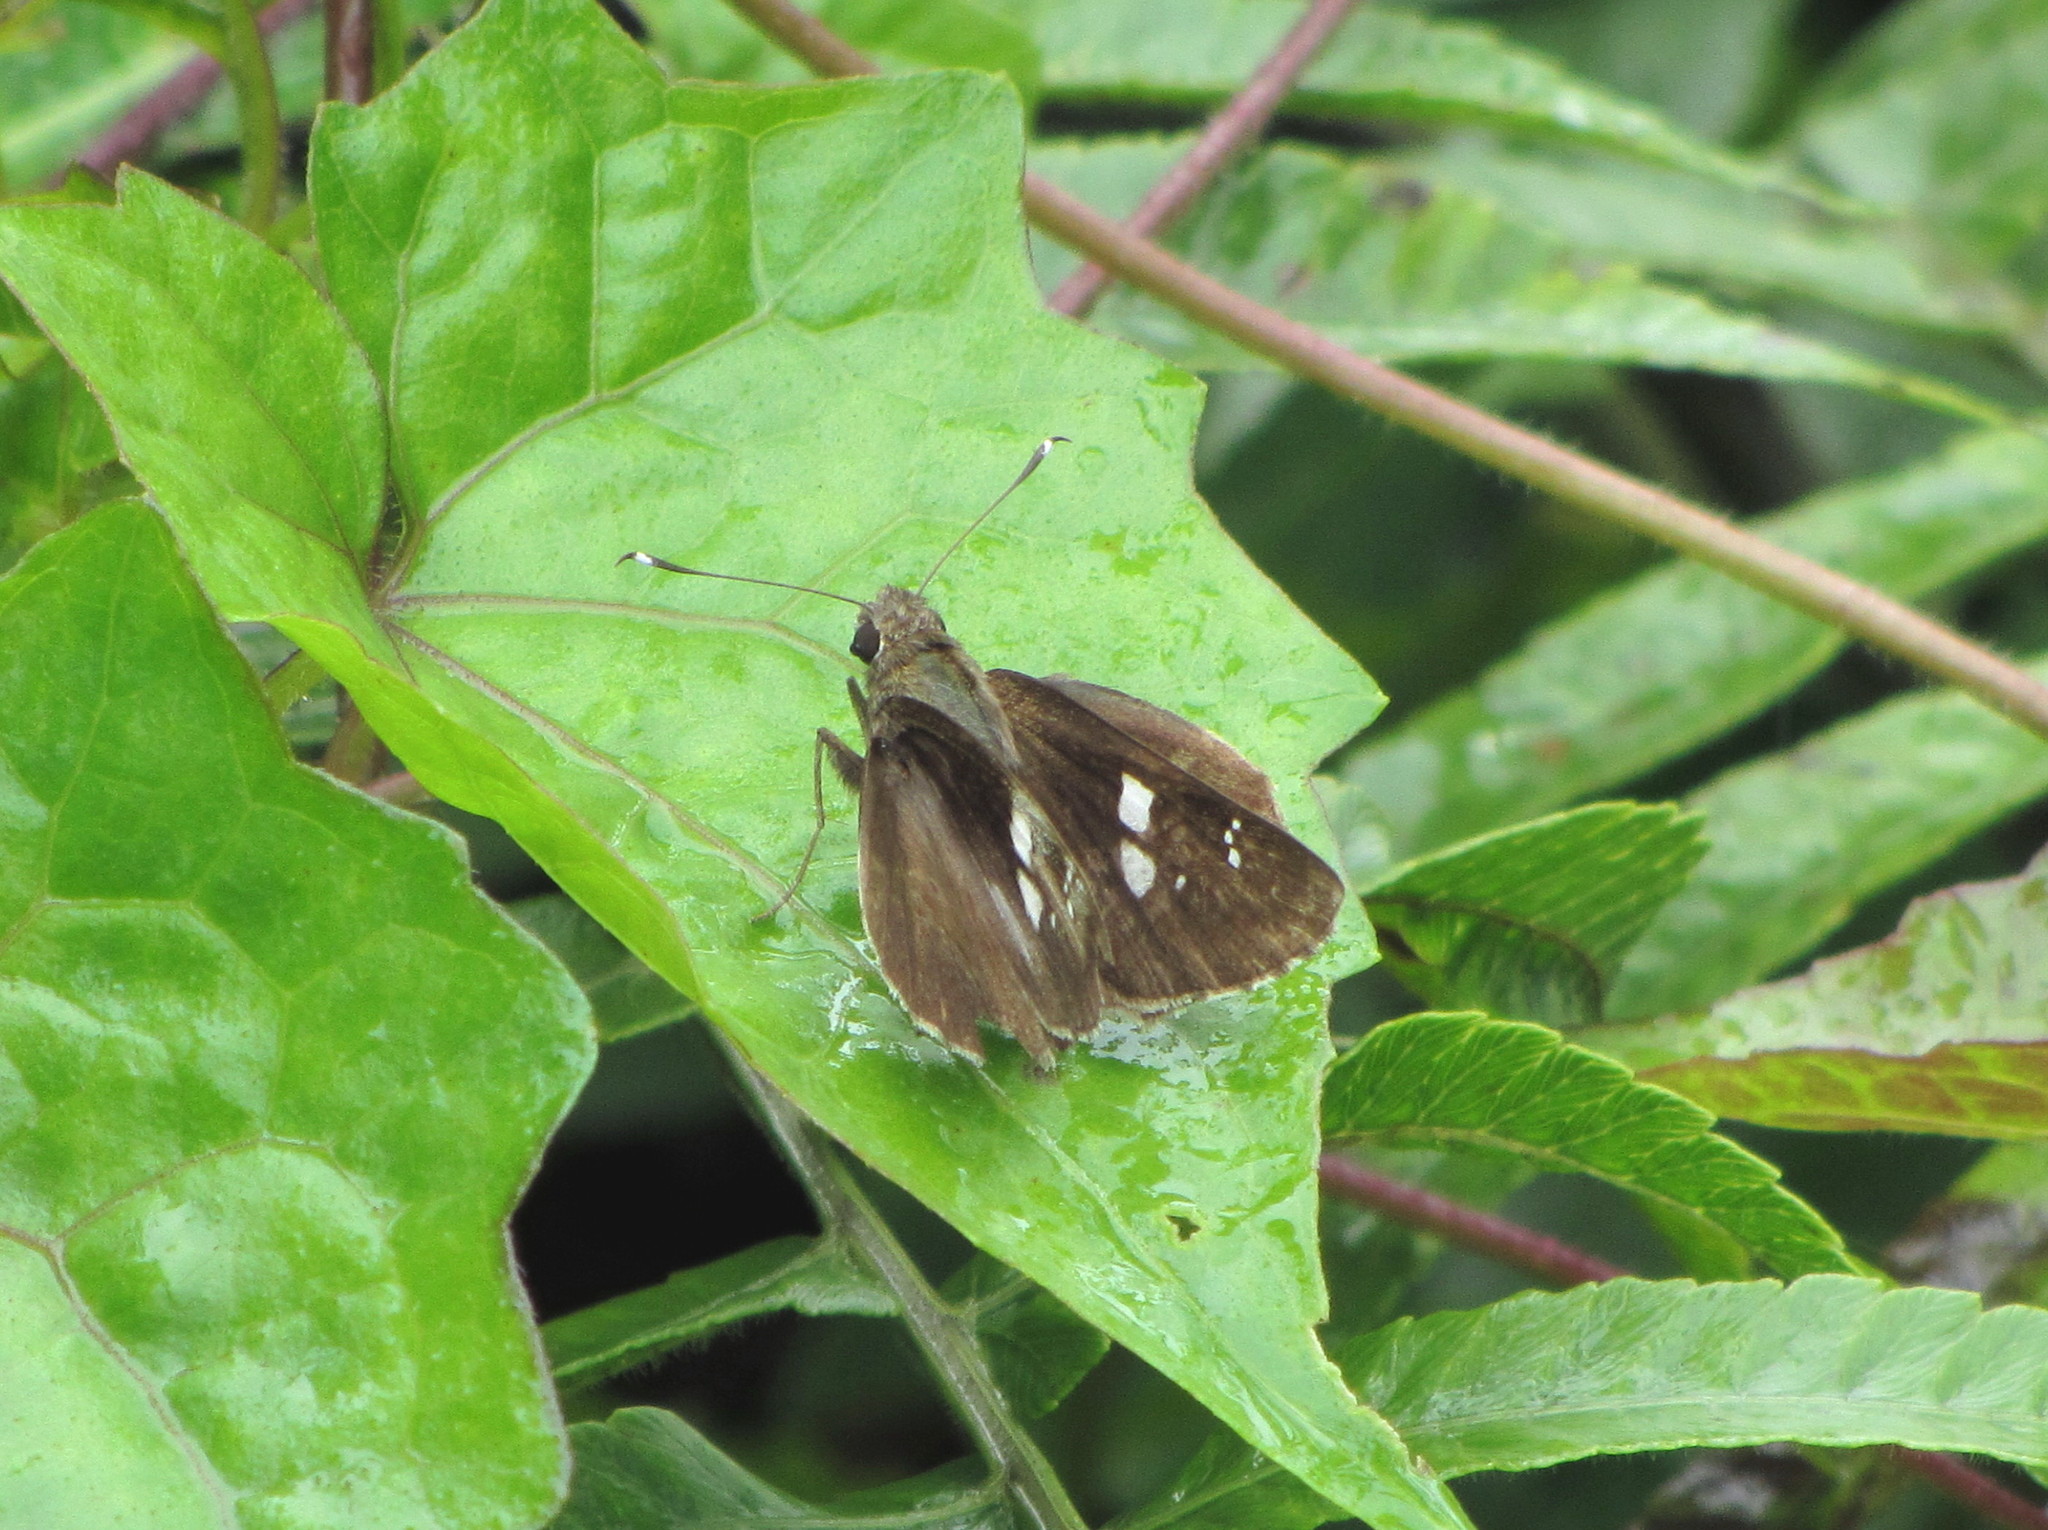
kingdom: Animalia
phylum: Arthropoda
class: Insecta
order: Lepidoptera
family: Hesperiidae
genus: Hyarotis
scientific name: Hyarotis adrastus
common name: Tree flitter
